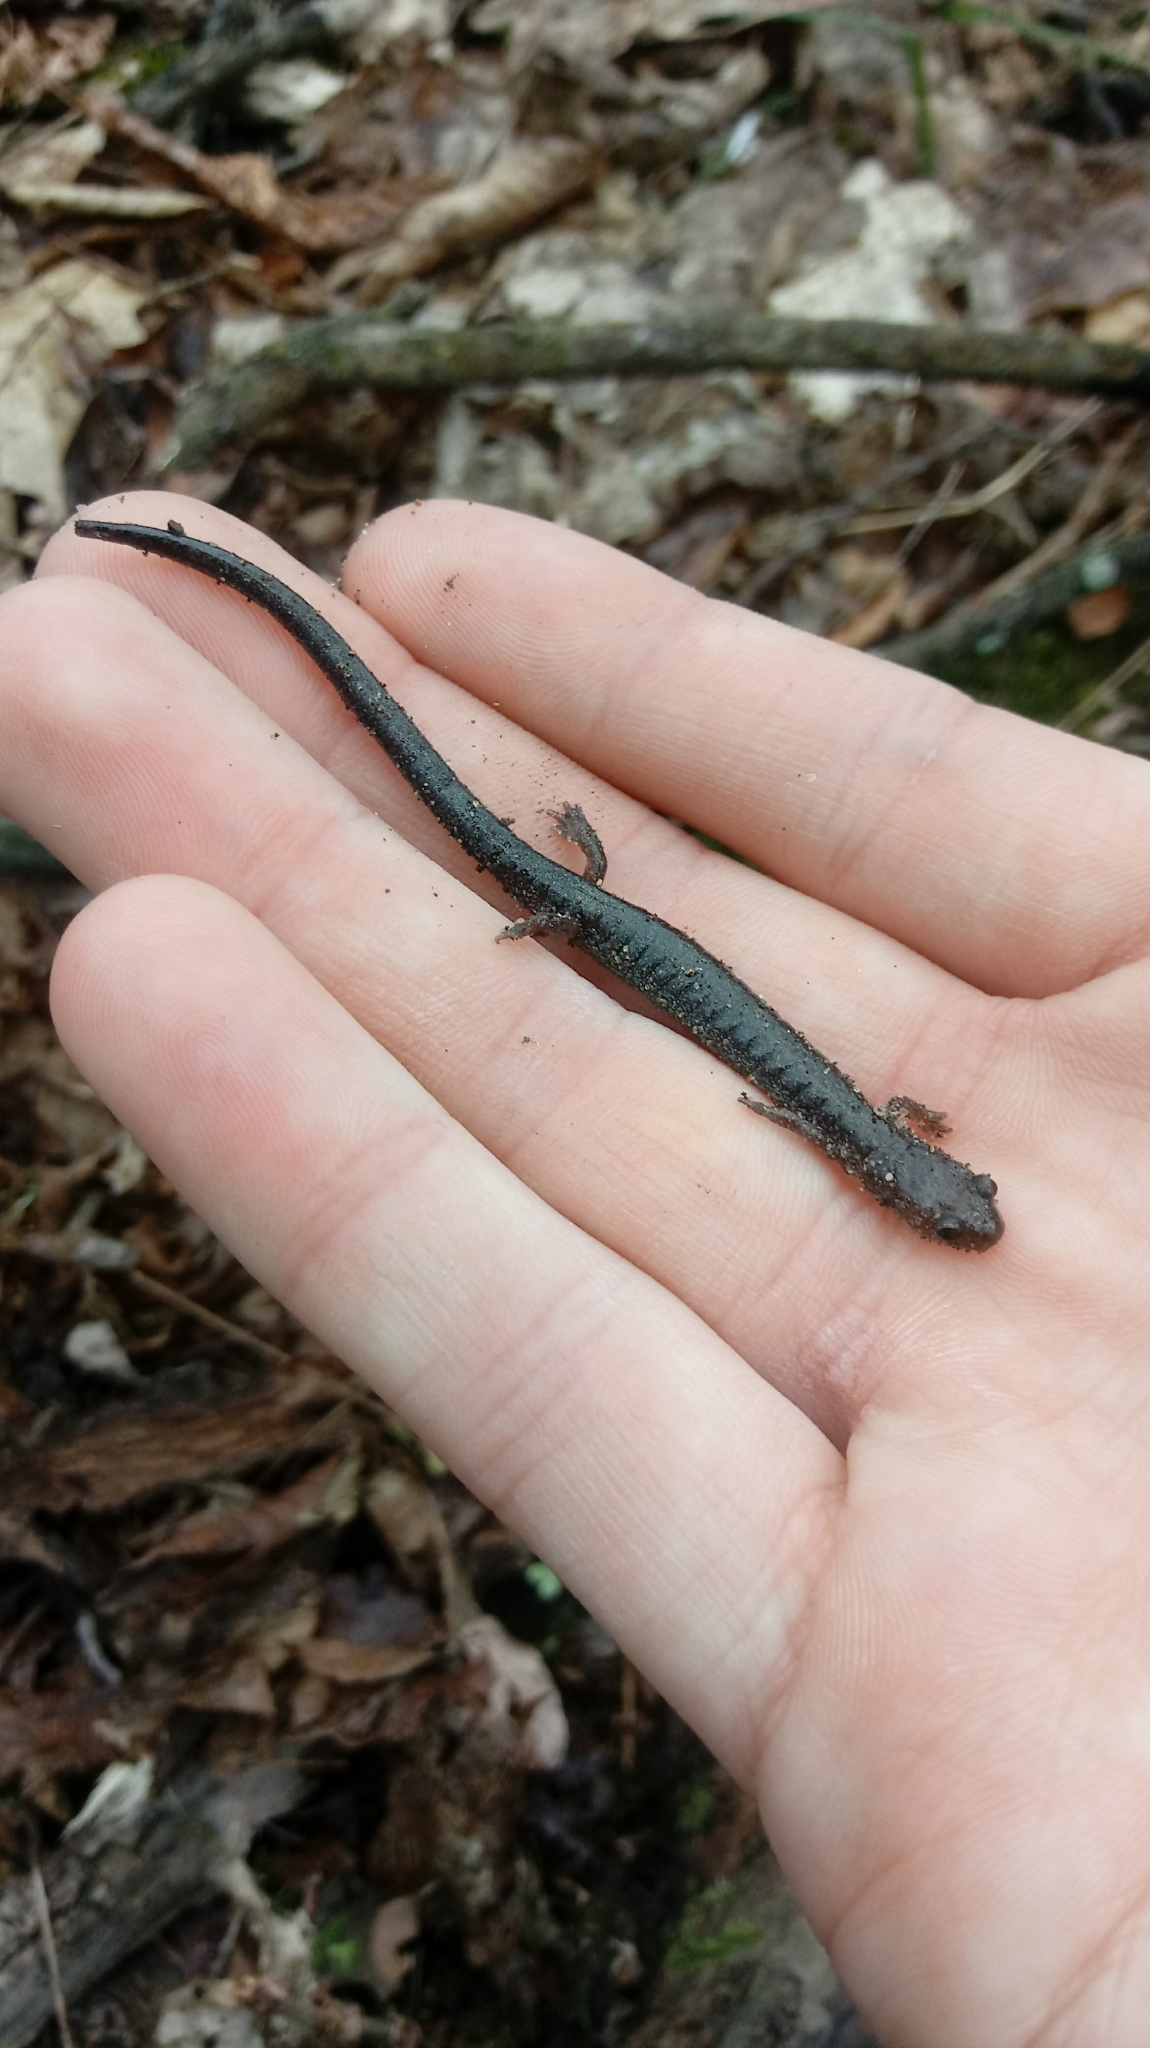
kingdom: Animalia
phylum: Chordata
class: Amphibia
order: Caudata
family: Plethodontidae
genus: Plethodon
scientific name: Plethodon cinereus
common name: Redback salamander
